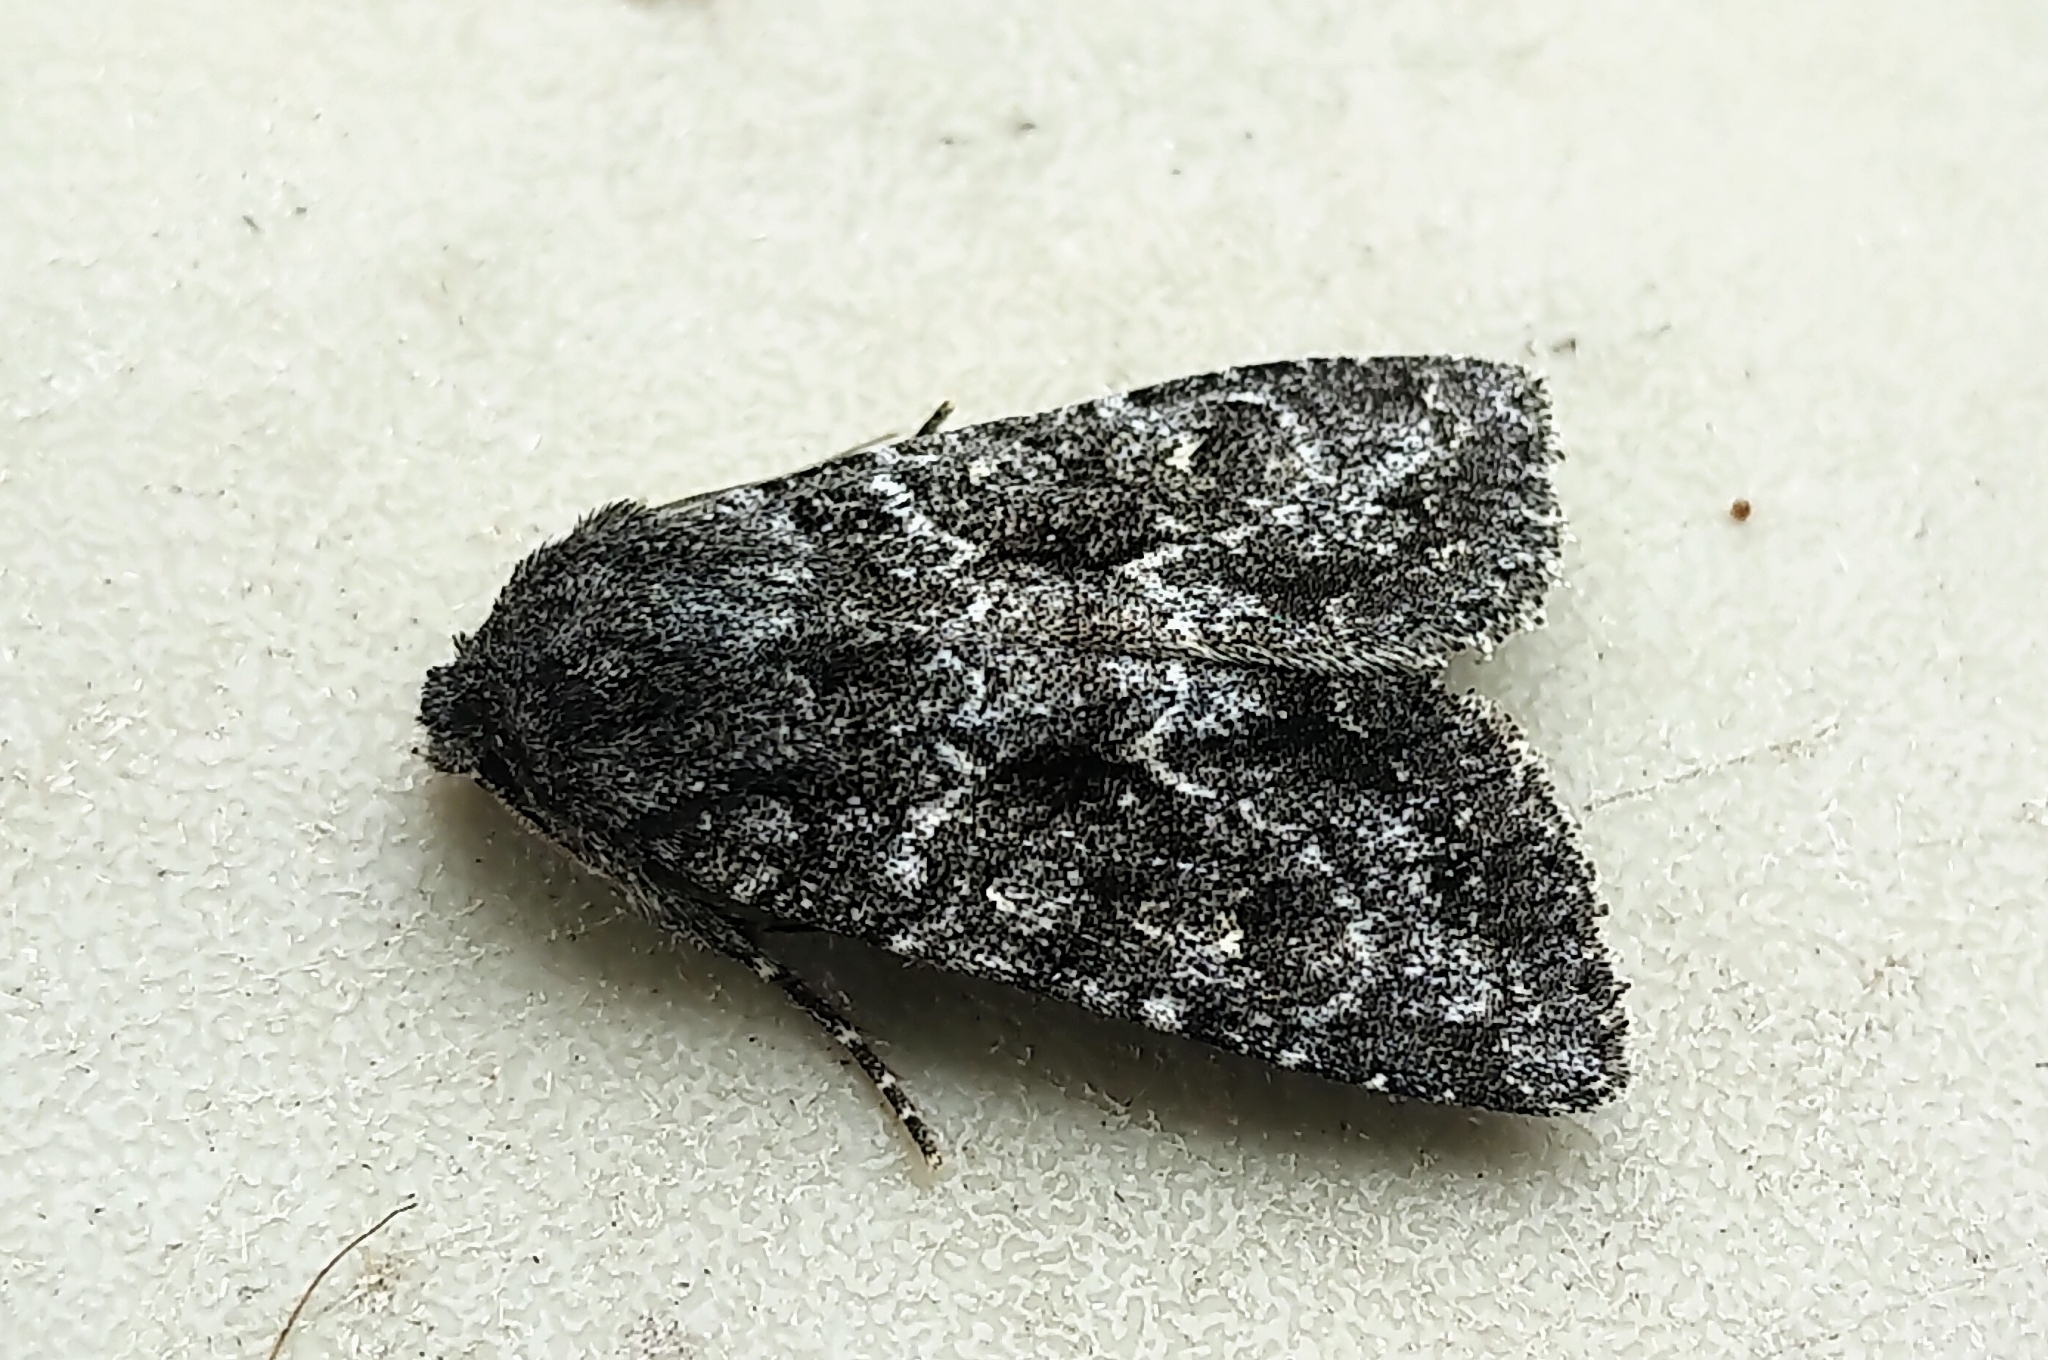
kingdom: Animalia
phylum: Arthropoda
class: Insecta
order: Lepidoptera
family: Noctuidae
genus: Sutyna
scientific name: Sutyna privata
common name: Private sallow
